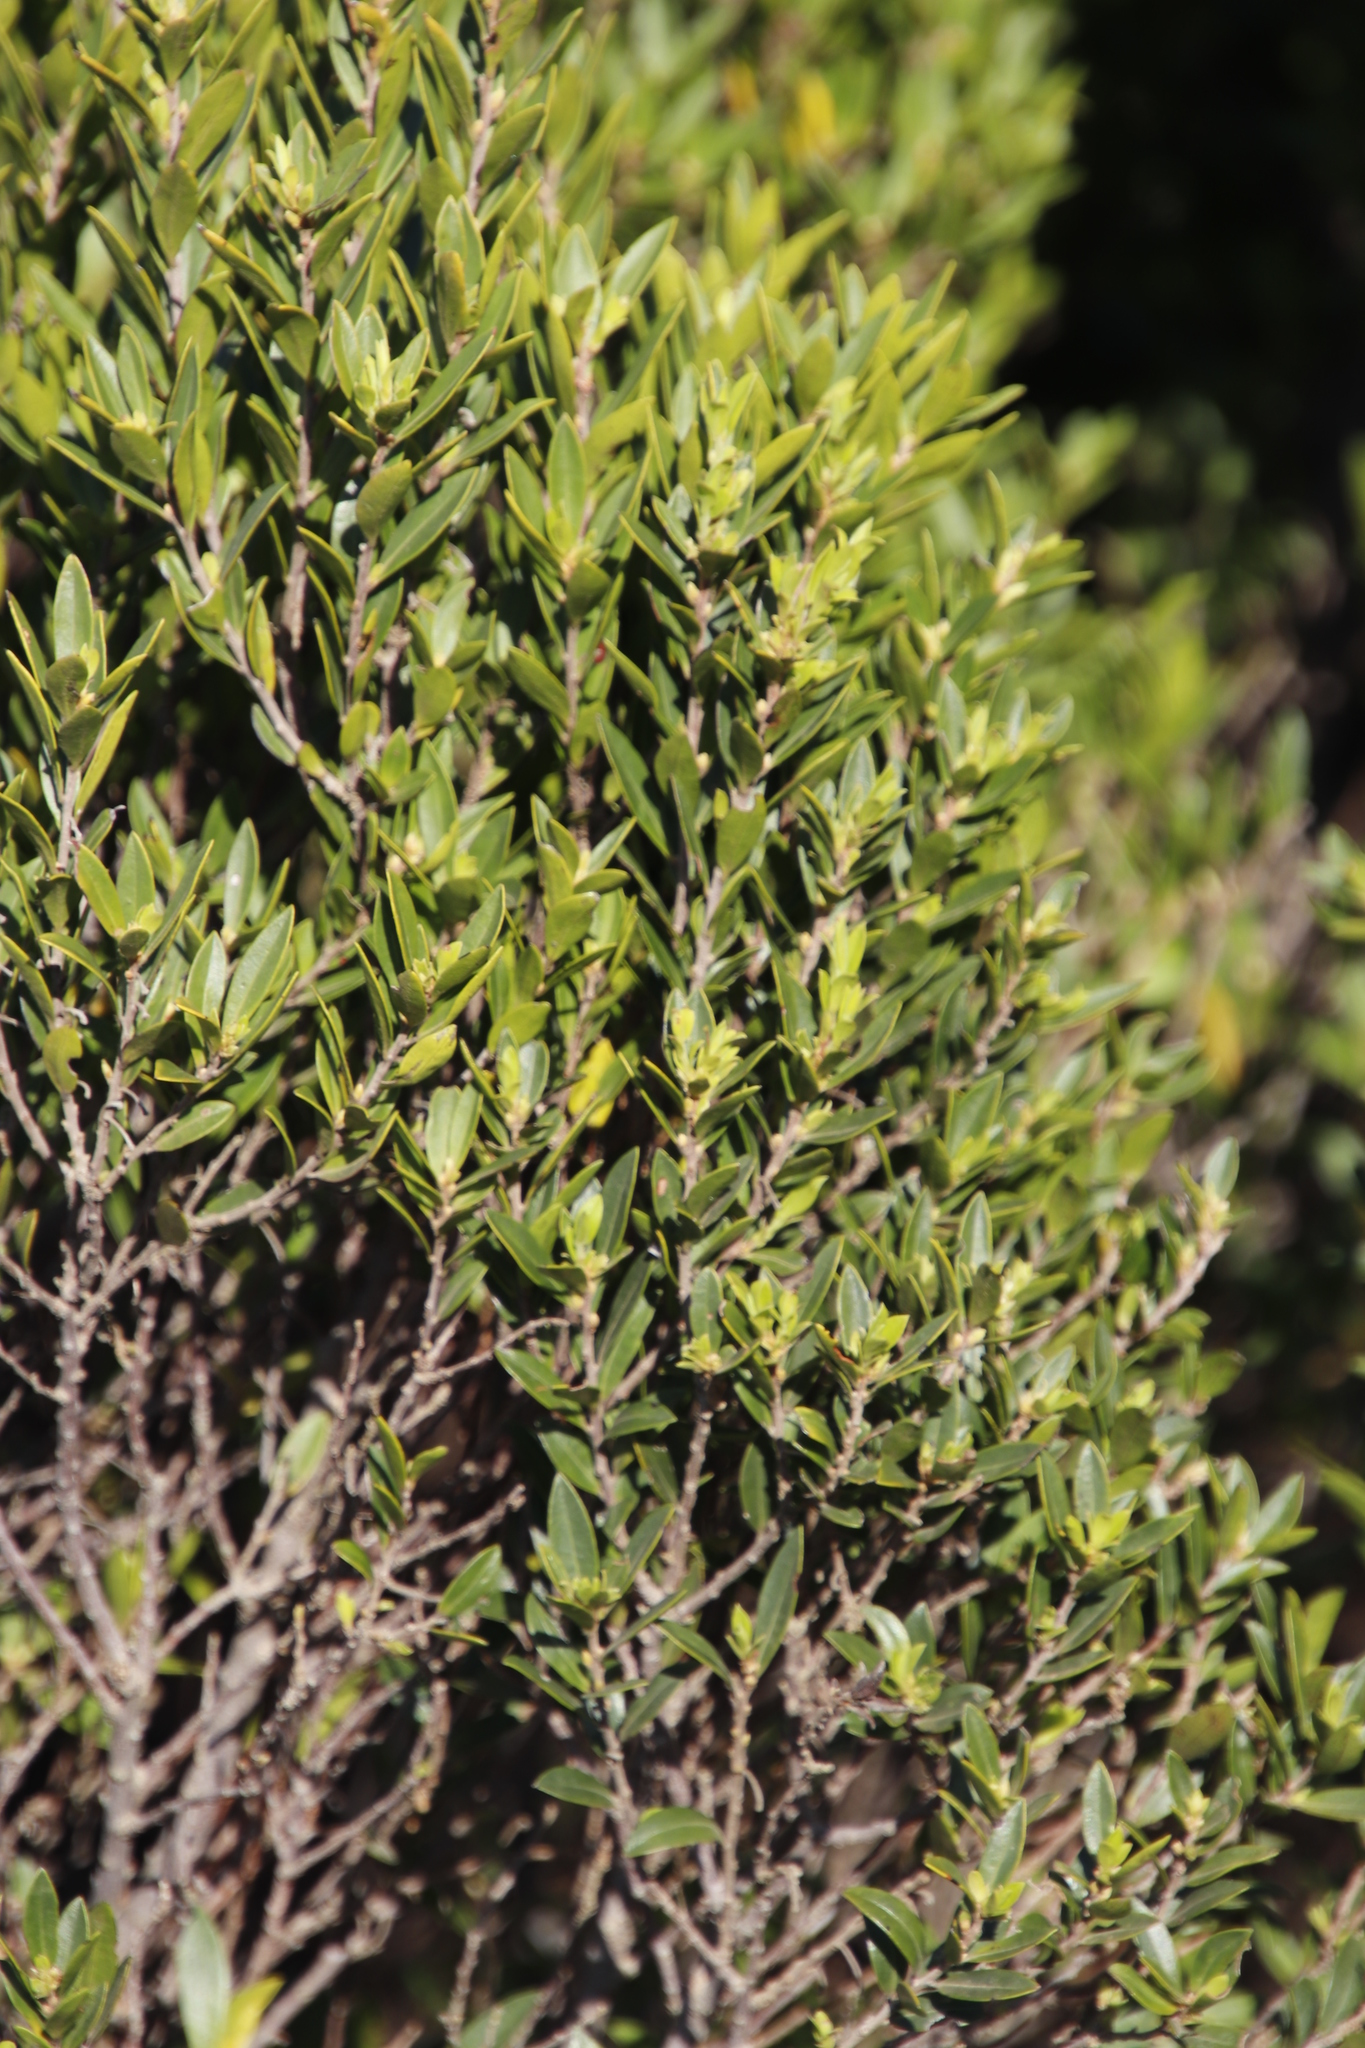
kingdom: Plantae
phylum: Tracheophyta
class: Magnoliopsida
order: Ericales
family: Ebenaceae
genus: Diospyros
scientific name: Diospyros glabra
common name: Fynbos star apple
